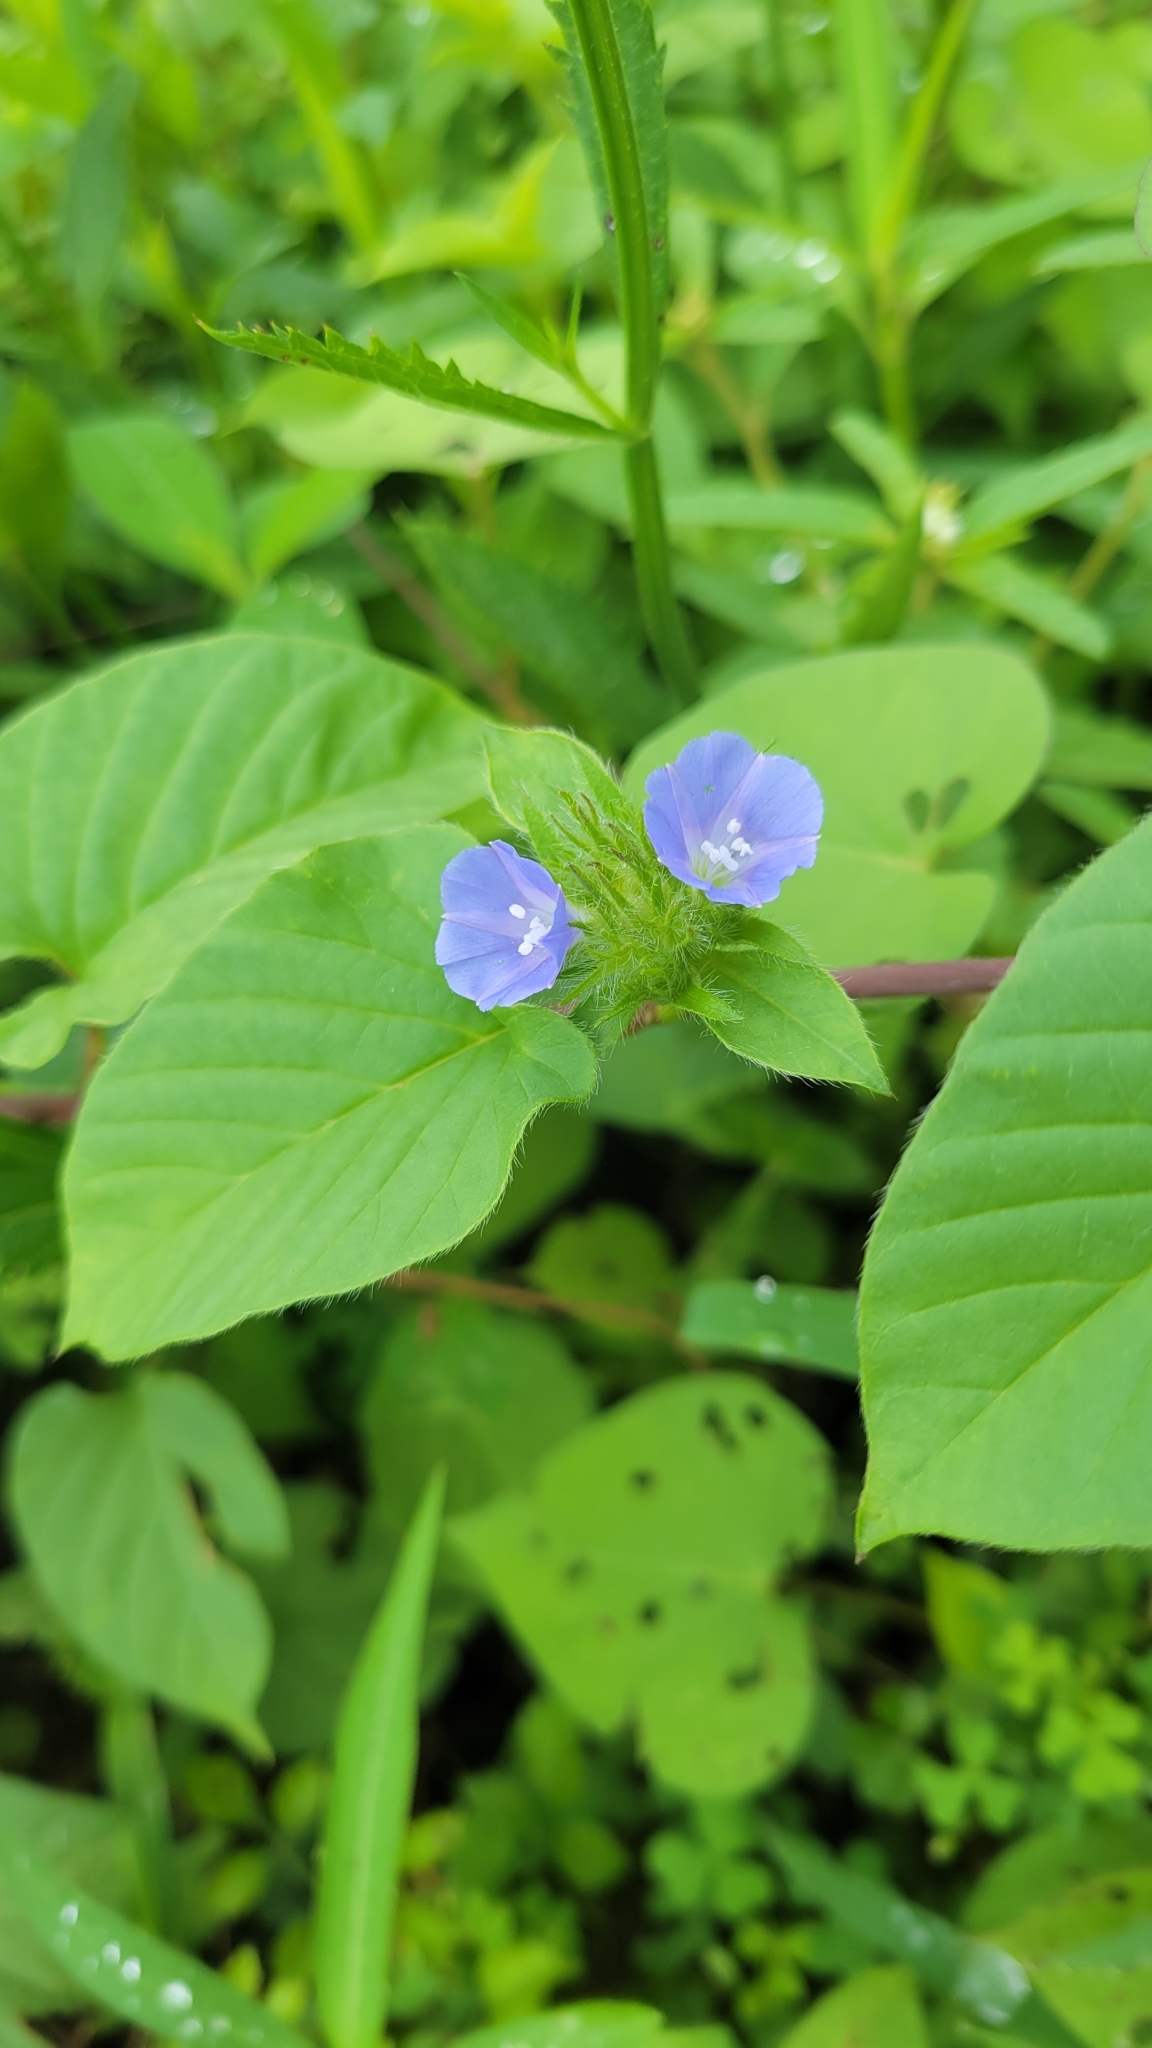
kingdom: Plantae
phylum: Tracheophyta
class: Magnoliopsida
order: Solanales
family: Convolvulaceae
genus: Jacquemontia
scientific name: Jacquemontia tamnifolia
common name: Hairy clustervine
